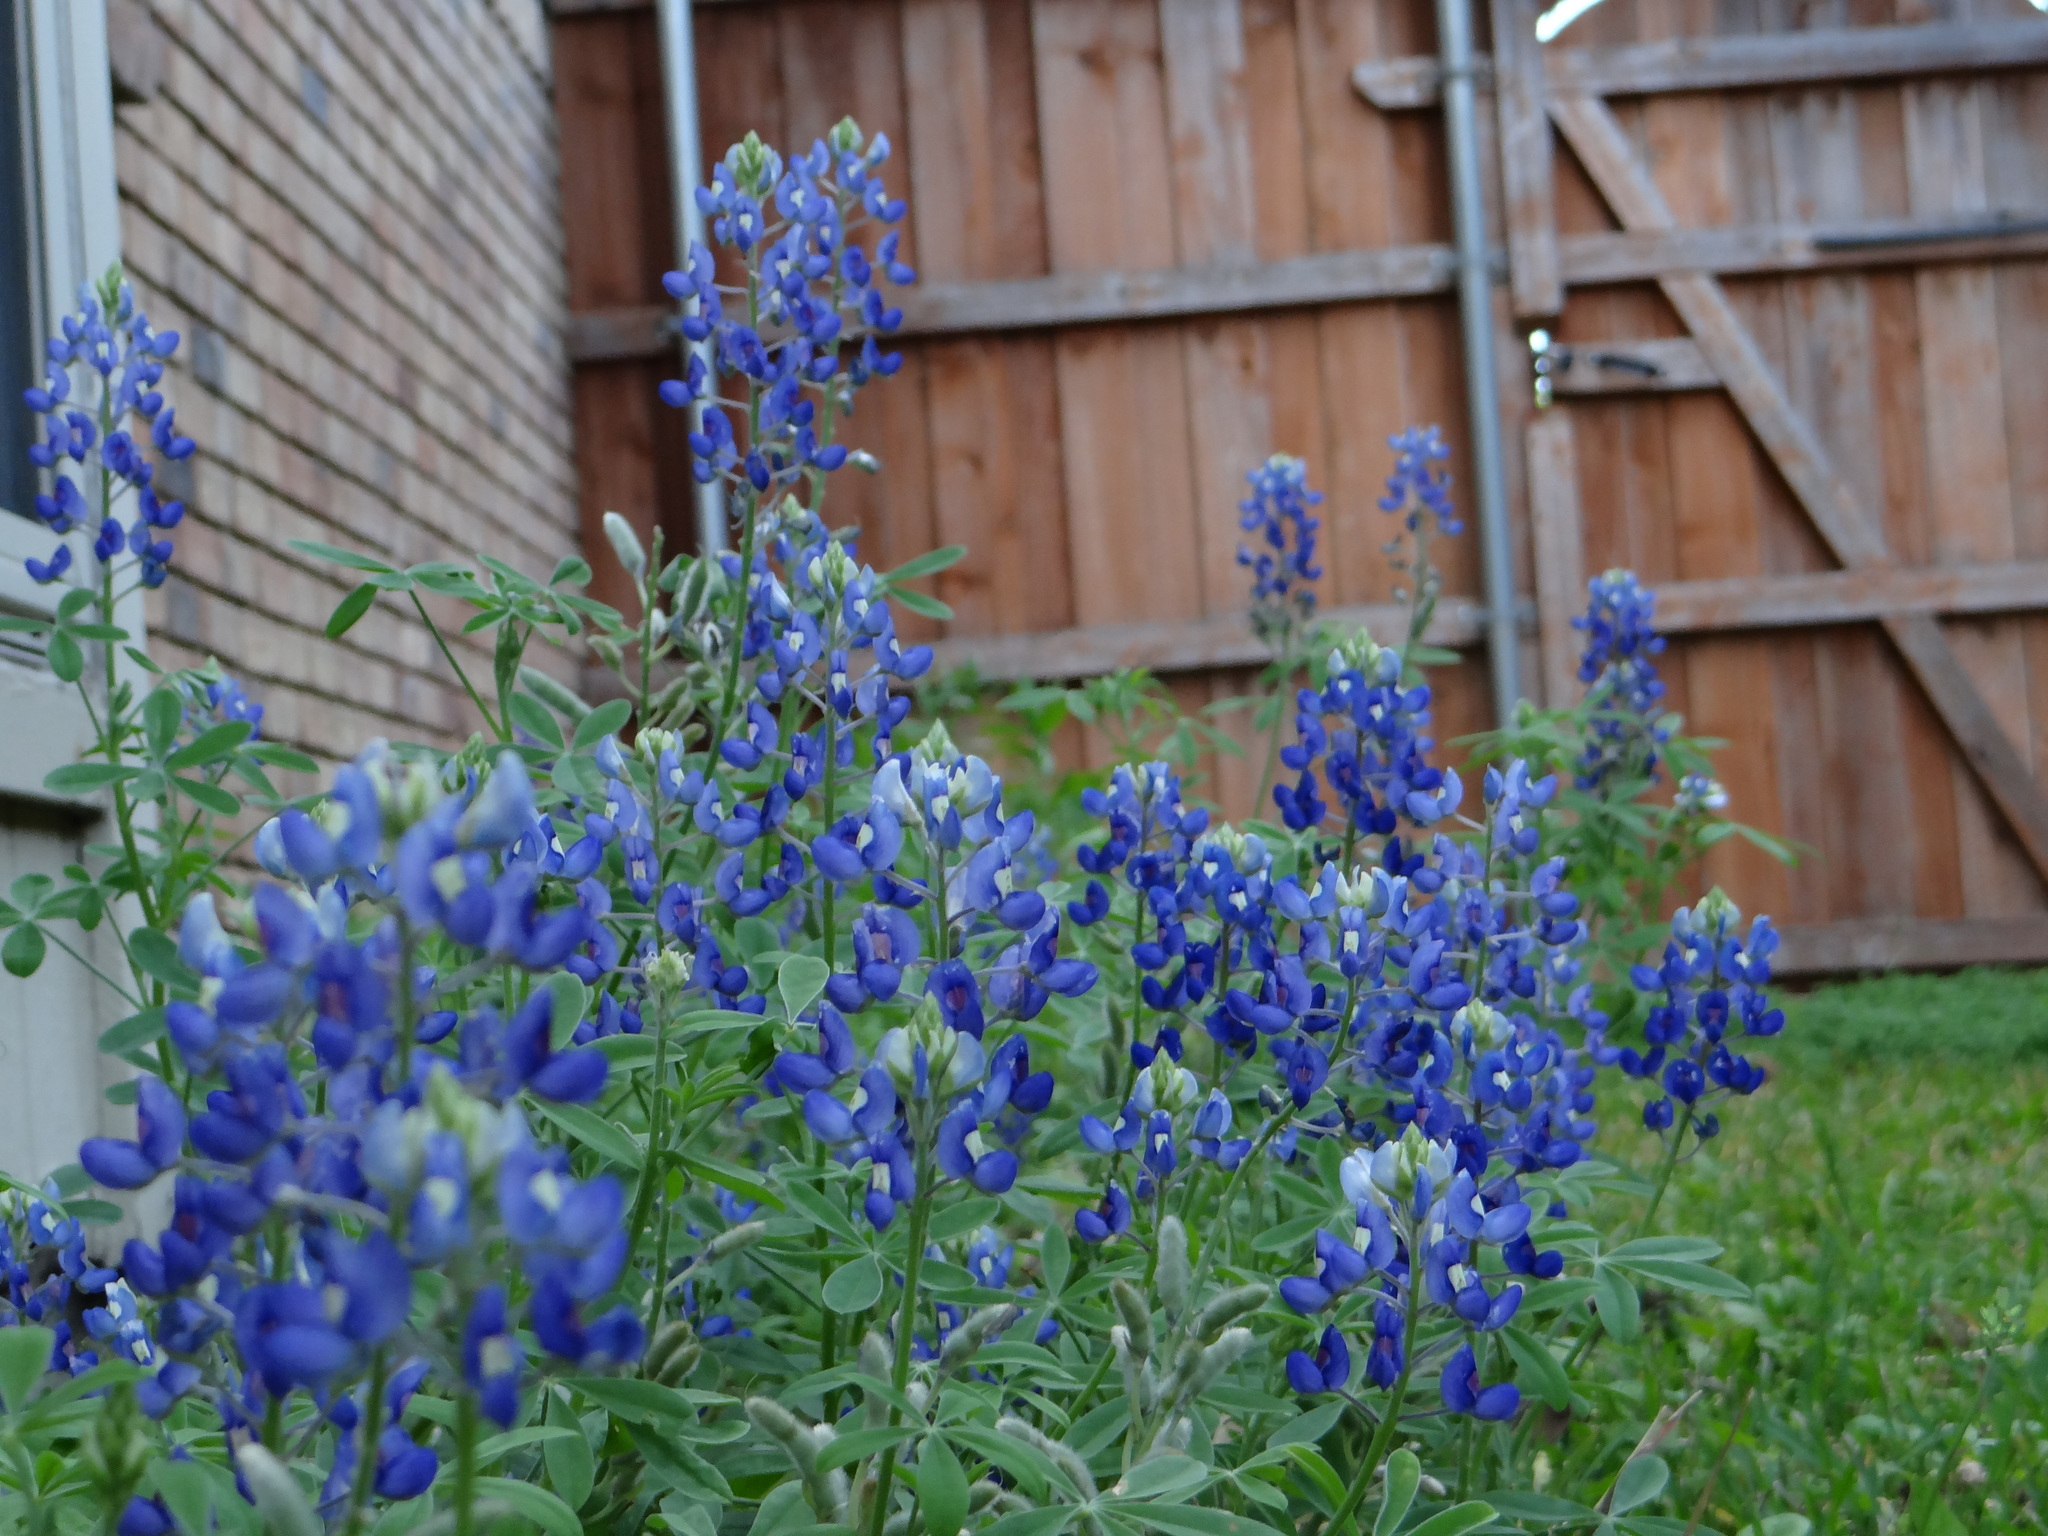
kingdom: Plantae
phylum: Tracheophyta
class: Magnoliopsida
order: Fabales
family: Fabaceae
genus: Lupinus
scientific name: Lupinus texensis
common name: Texas bluebonnet
